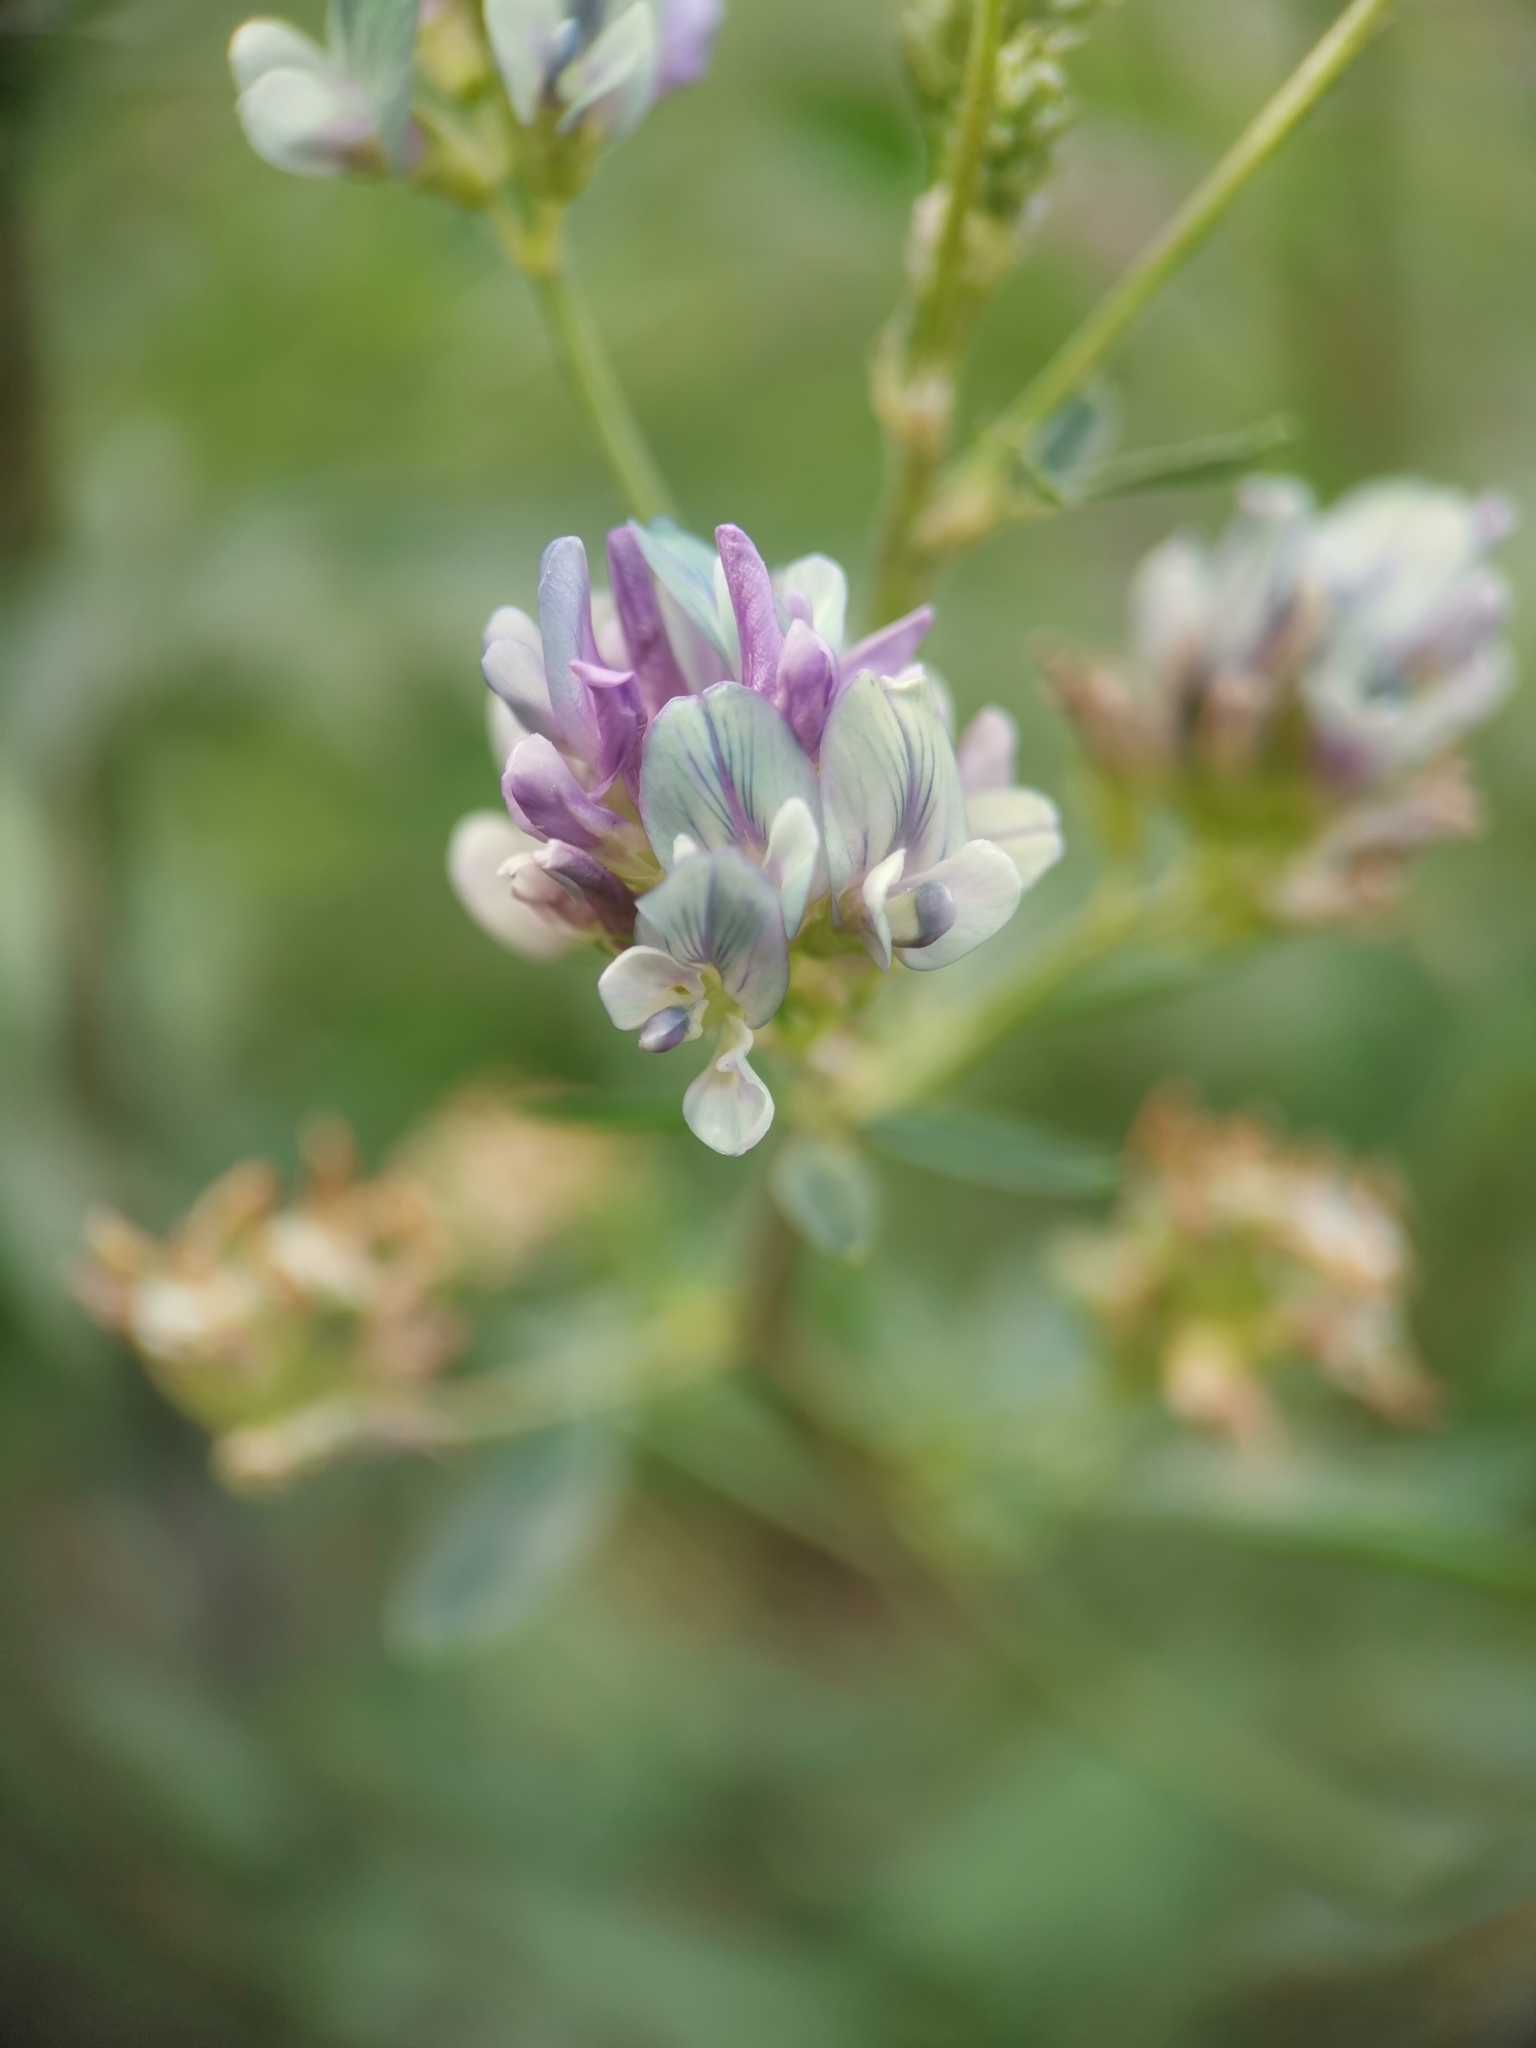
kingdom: Plantae
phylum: Tracheophyta
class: Magnoliopsida
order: Fabales
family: Fabaceae
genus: Medicago
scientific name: Medicago varia
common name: Sand lucerne
